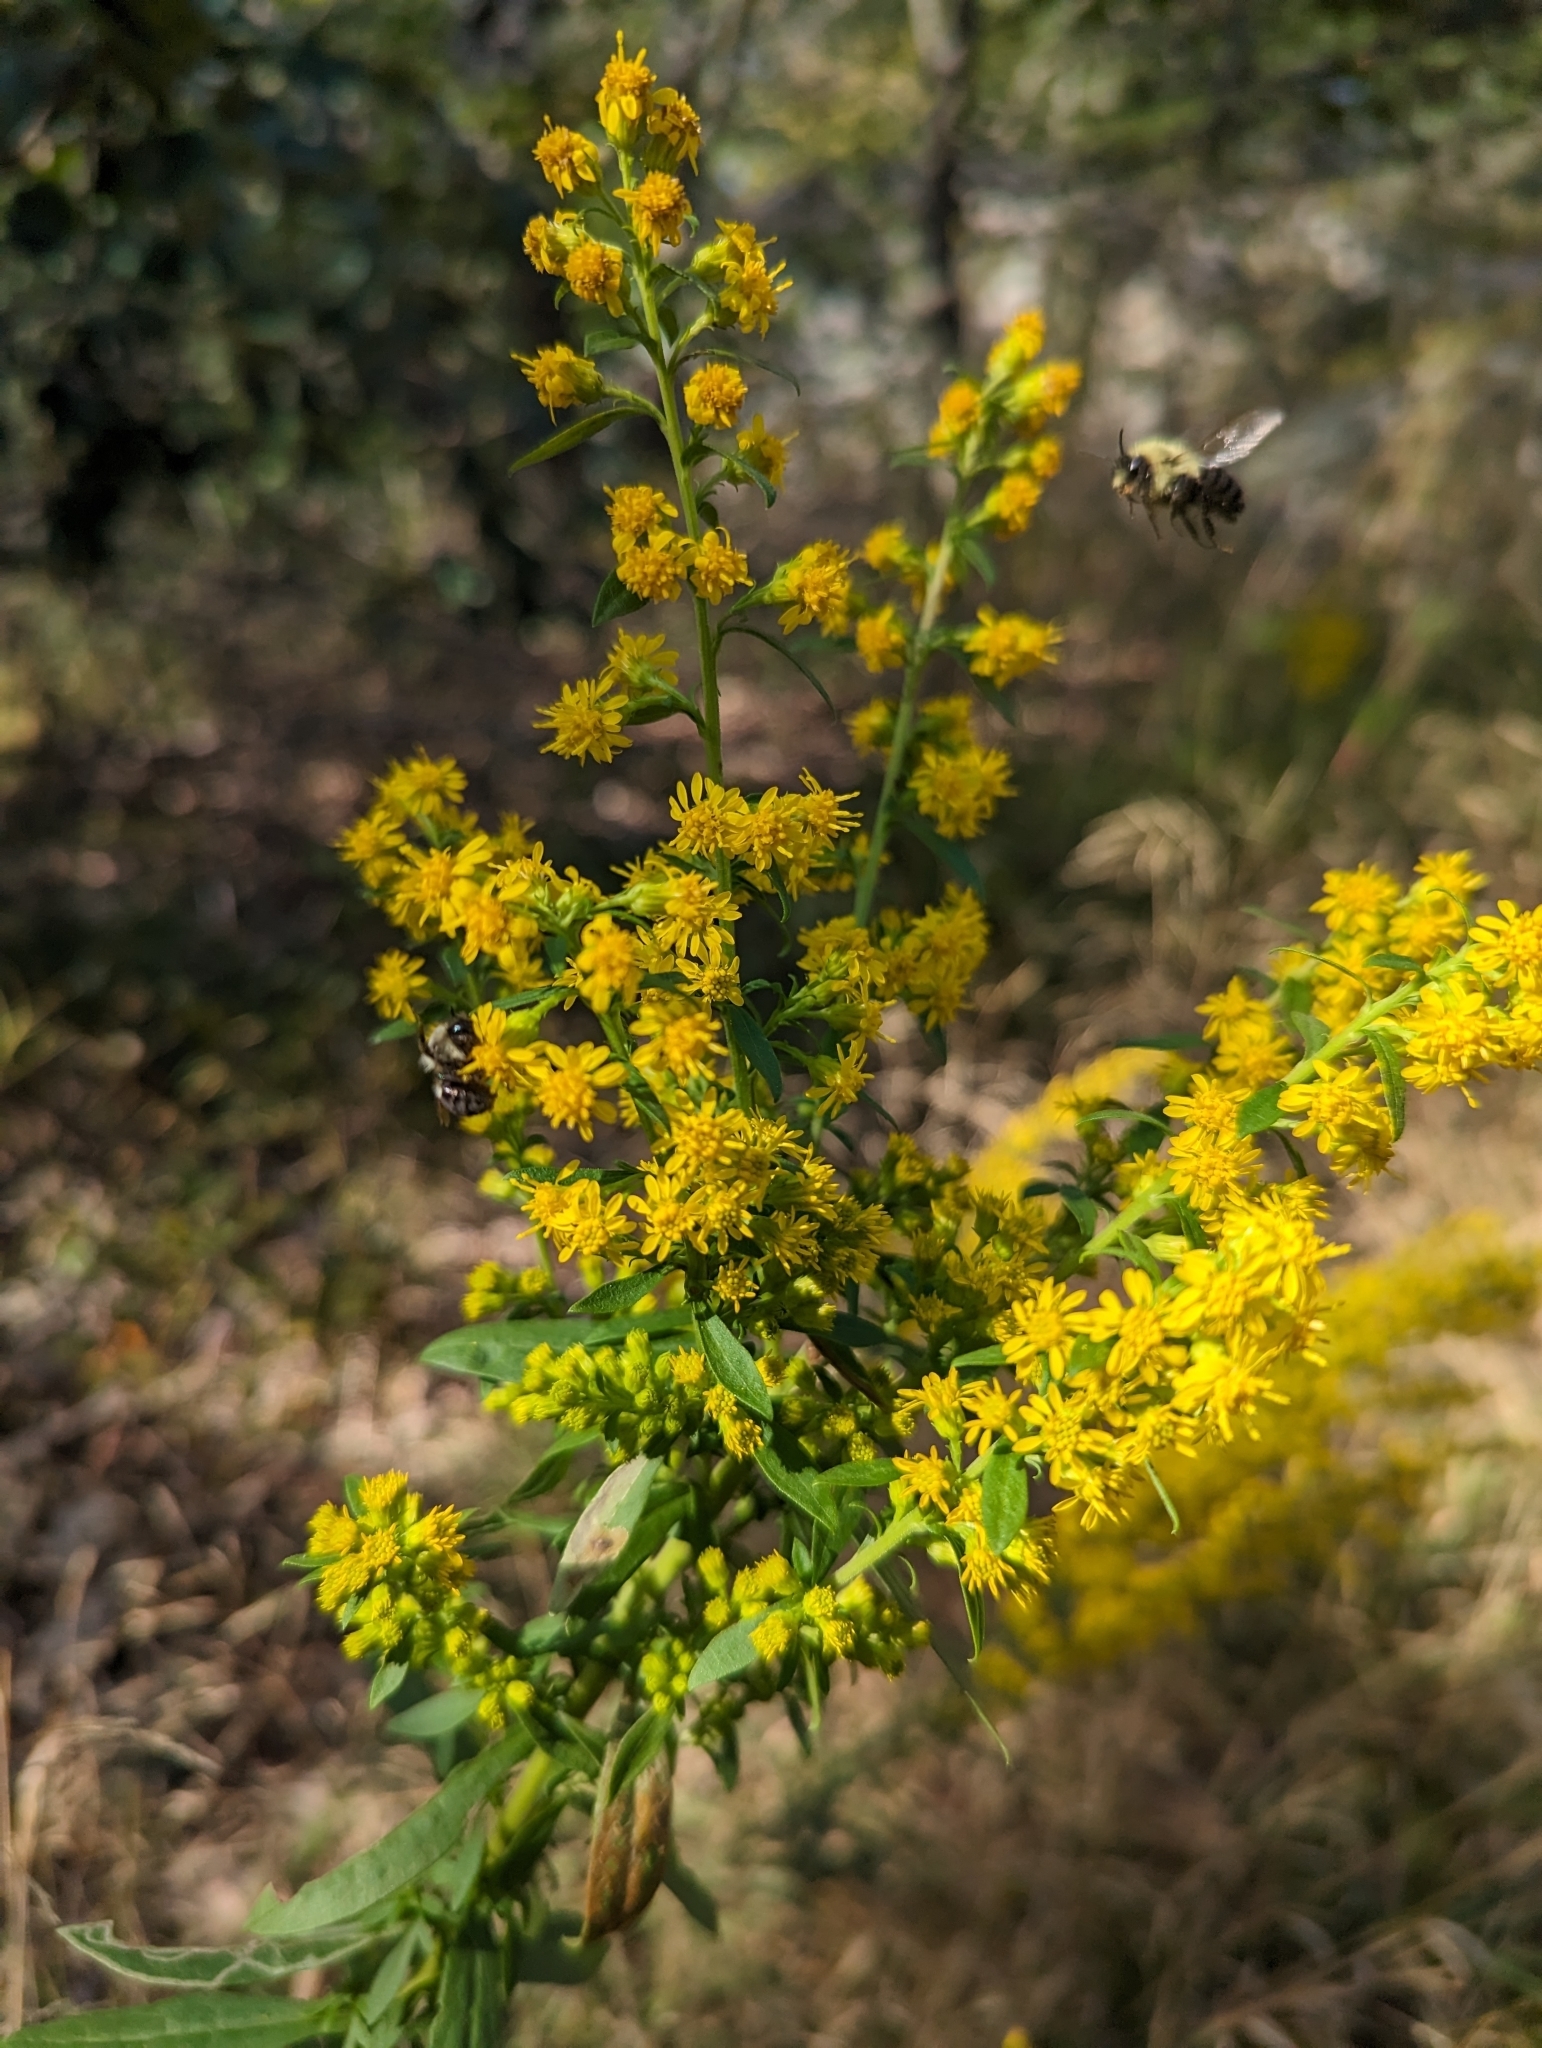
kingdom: Animalia
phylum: Arthropoda
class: Insecta
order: Diptera
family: Syrphidae
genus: Helophilus
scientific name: Helophilus fasciatus
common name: Narrow-headed marsh fly
